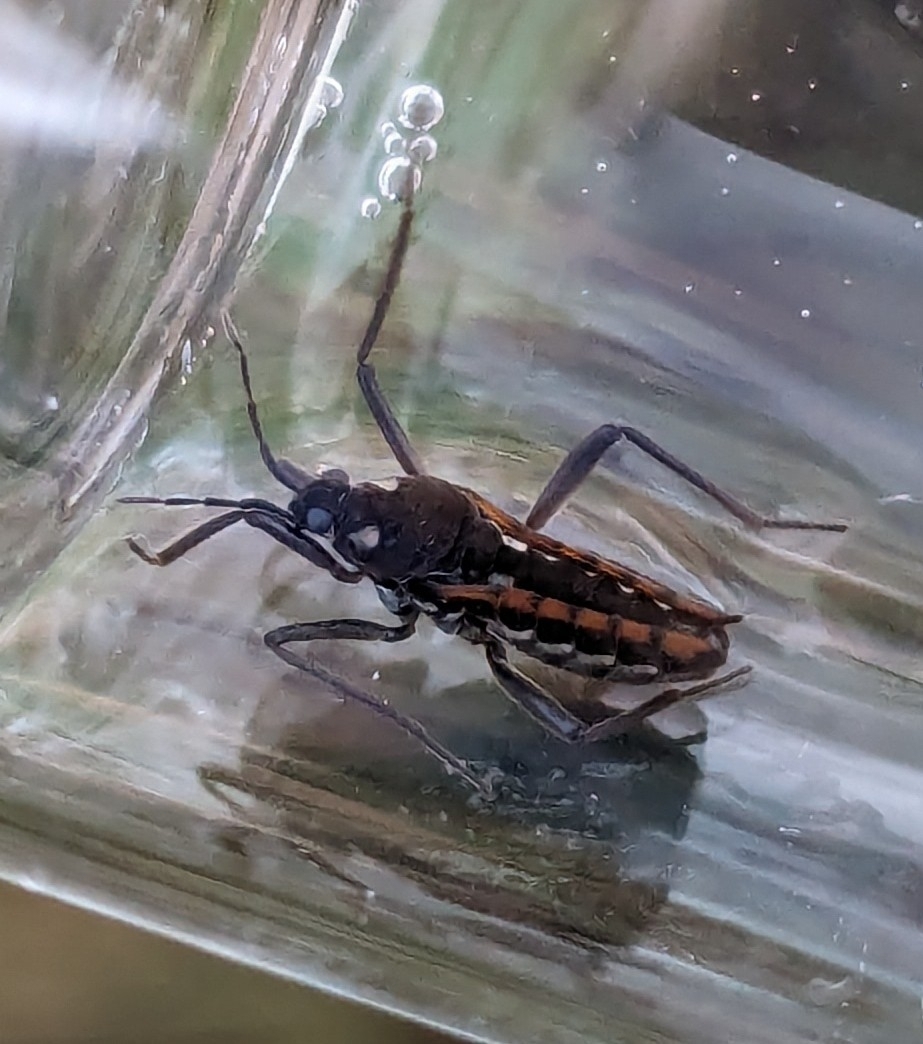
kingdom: Animalia
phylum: Arthropoda
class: Insecta
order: Hemiptera
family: Veliidae
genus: Velia
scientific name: Velia caprai
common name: Water cricket
